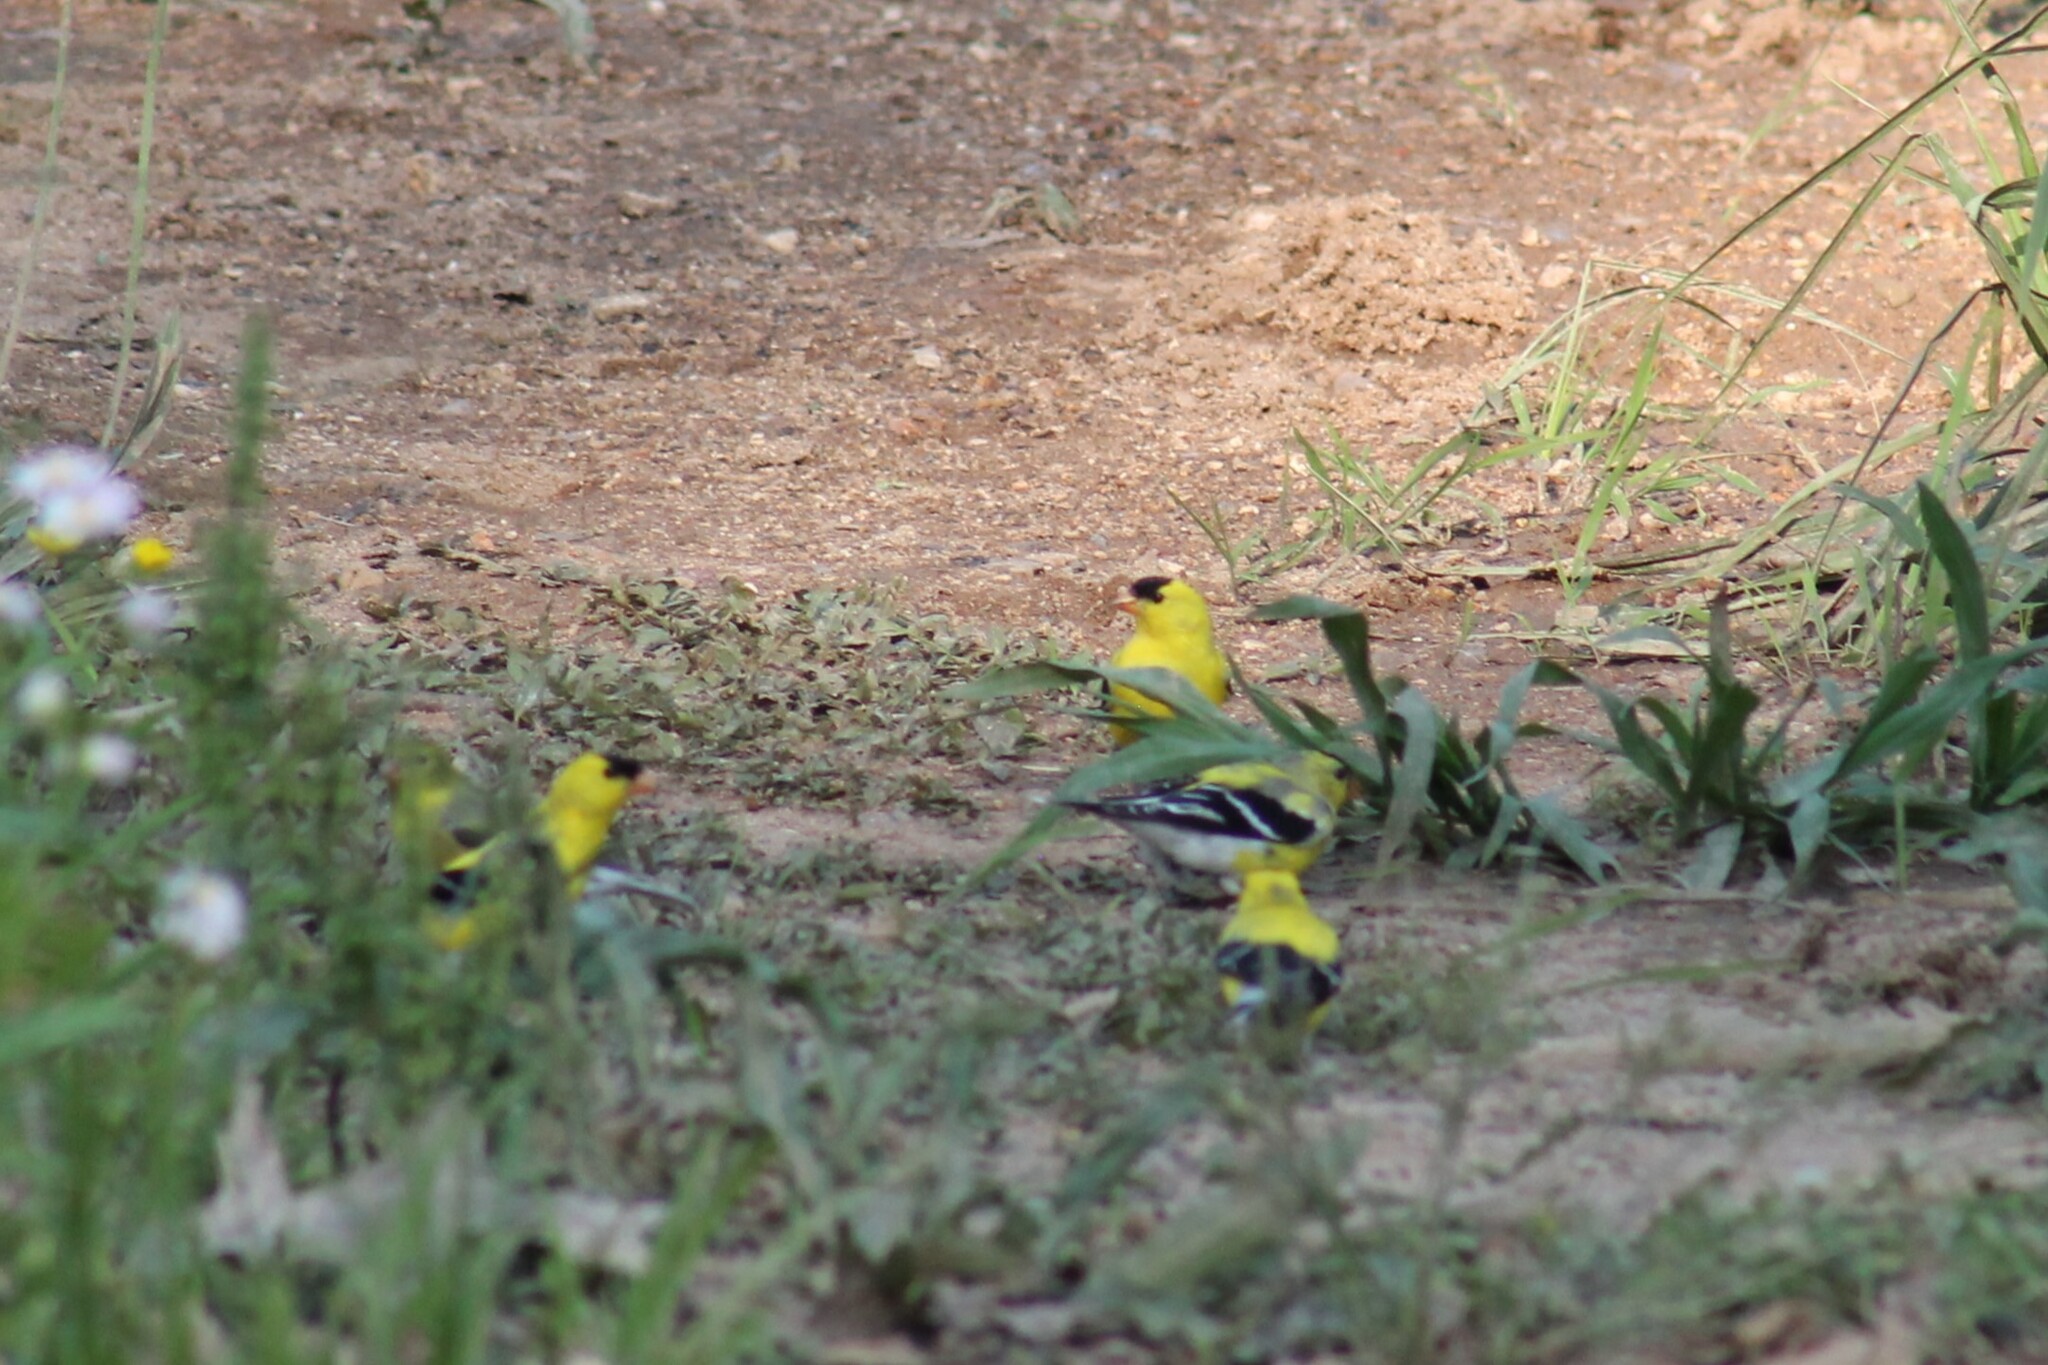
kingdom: Animalia
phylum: Chordata
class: Aves
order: Passeriformes
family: Fringillidae
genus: Spinus
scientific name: Spinus tristis
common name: American goldfinch
